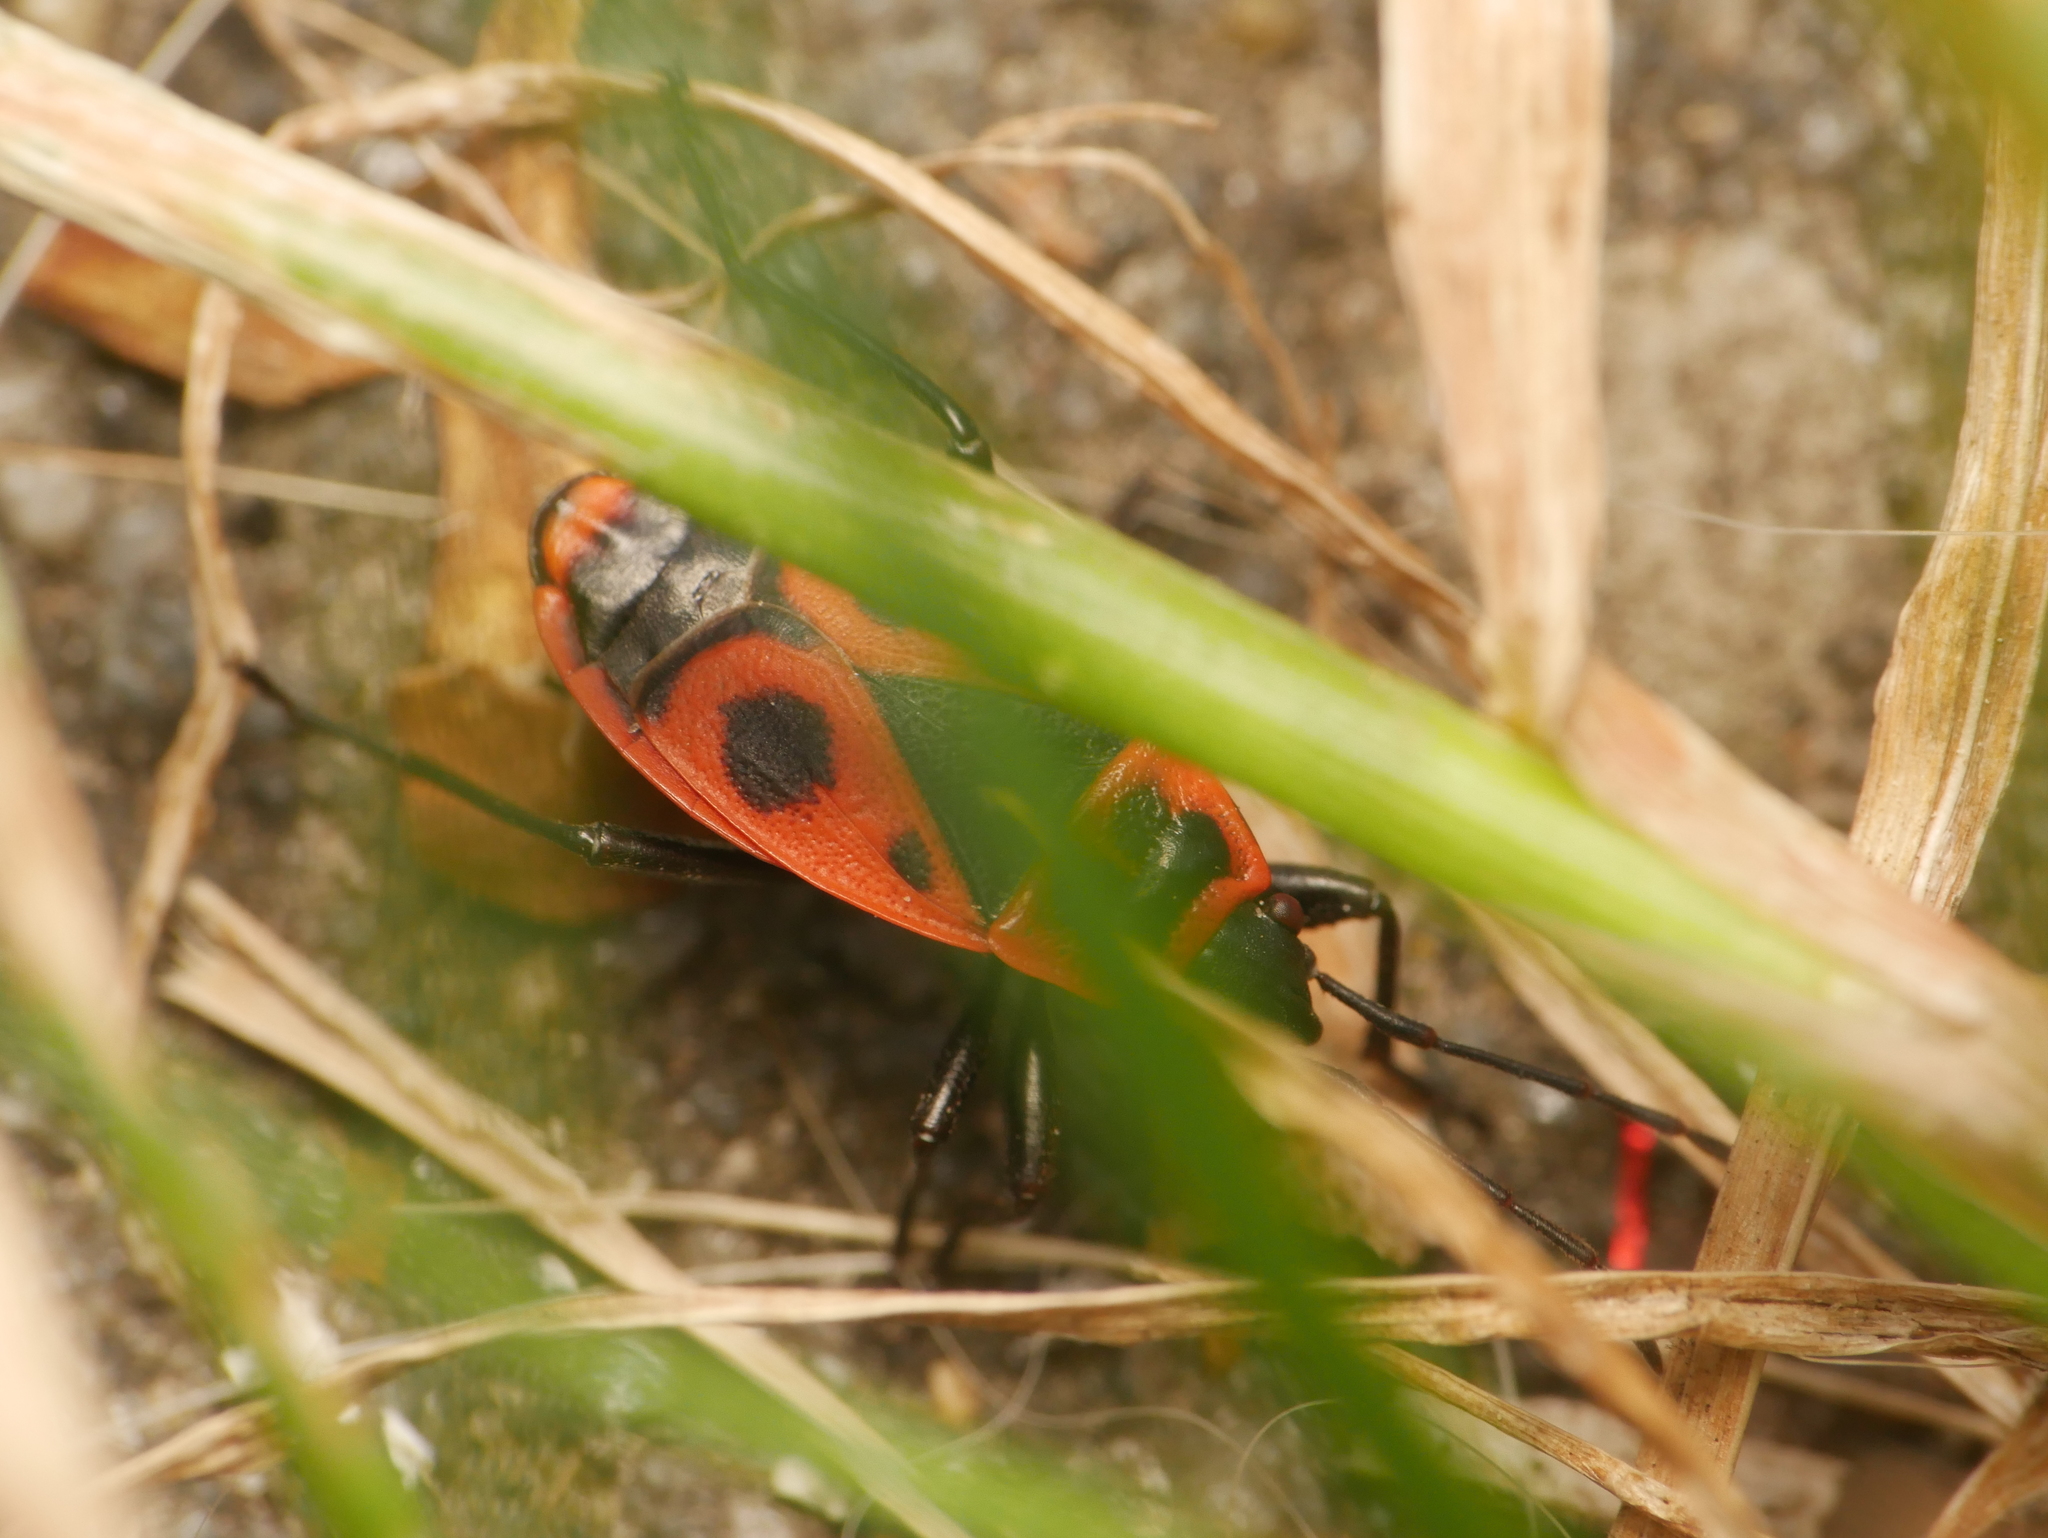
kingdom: Animalia
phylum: Arthropoda
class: Insecta
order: Hemiptera
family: Pyrrhocoridae
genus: Pyrrhocoris
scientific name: Pyrrhocoris apterus
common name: Firebug
